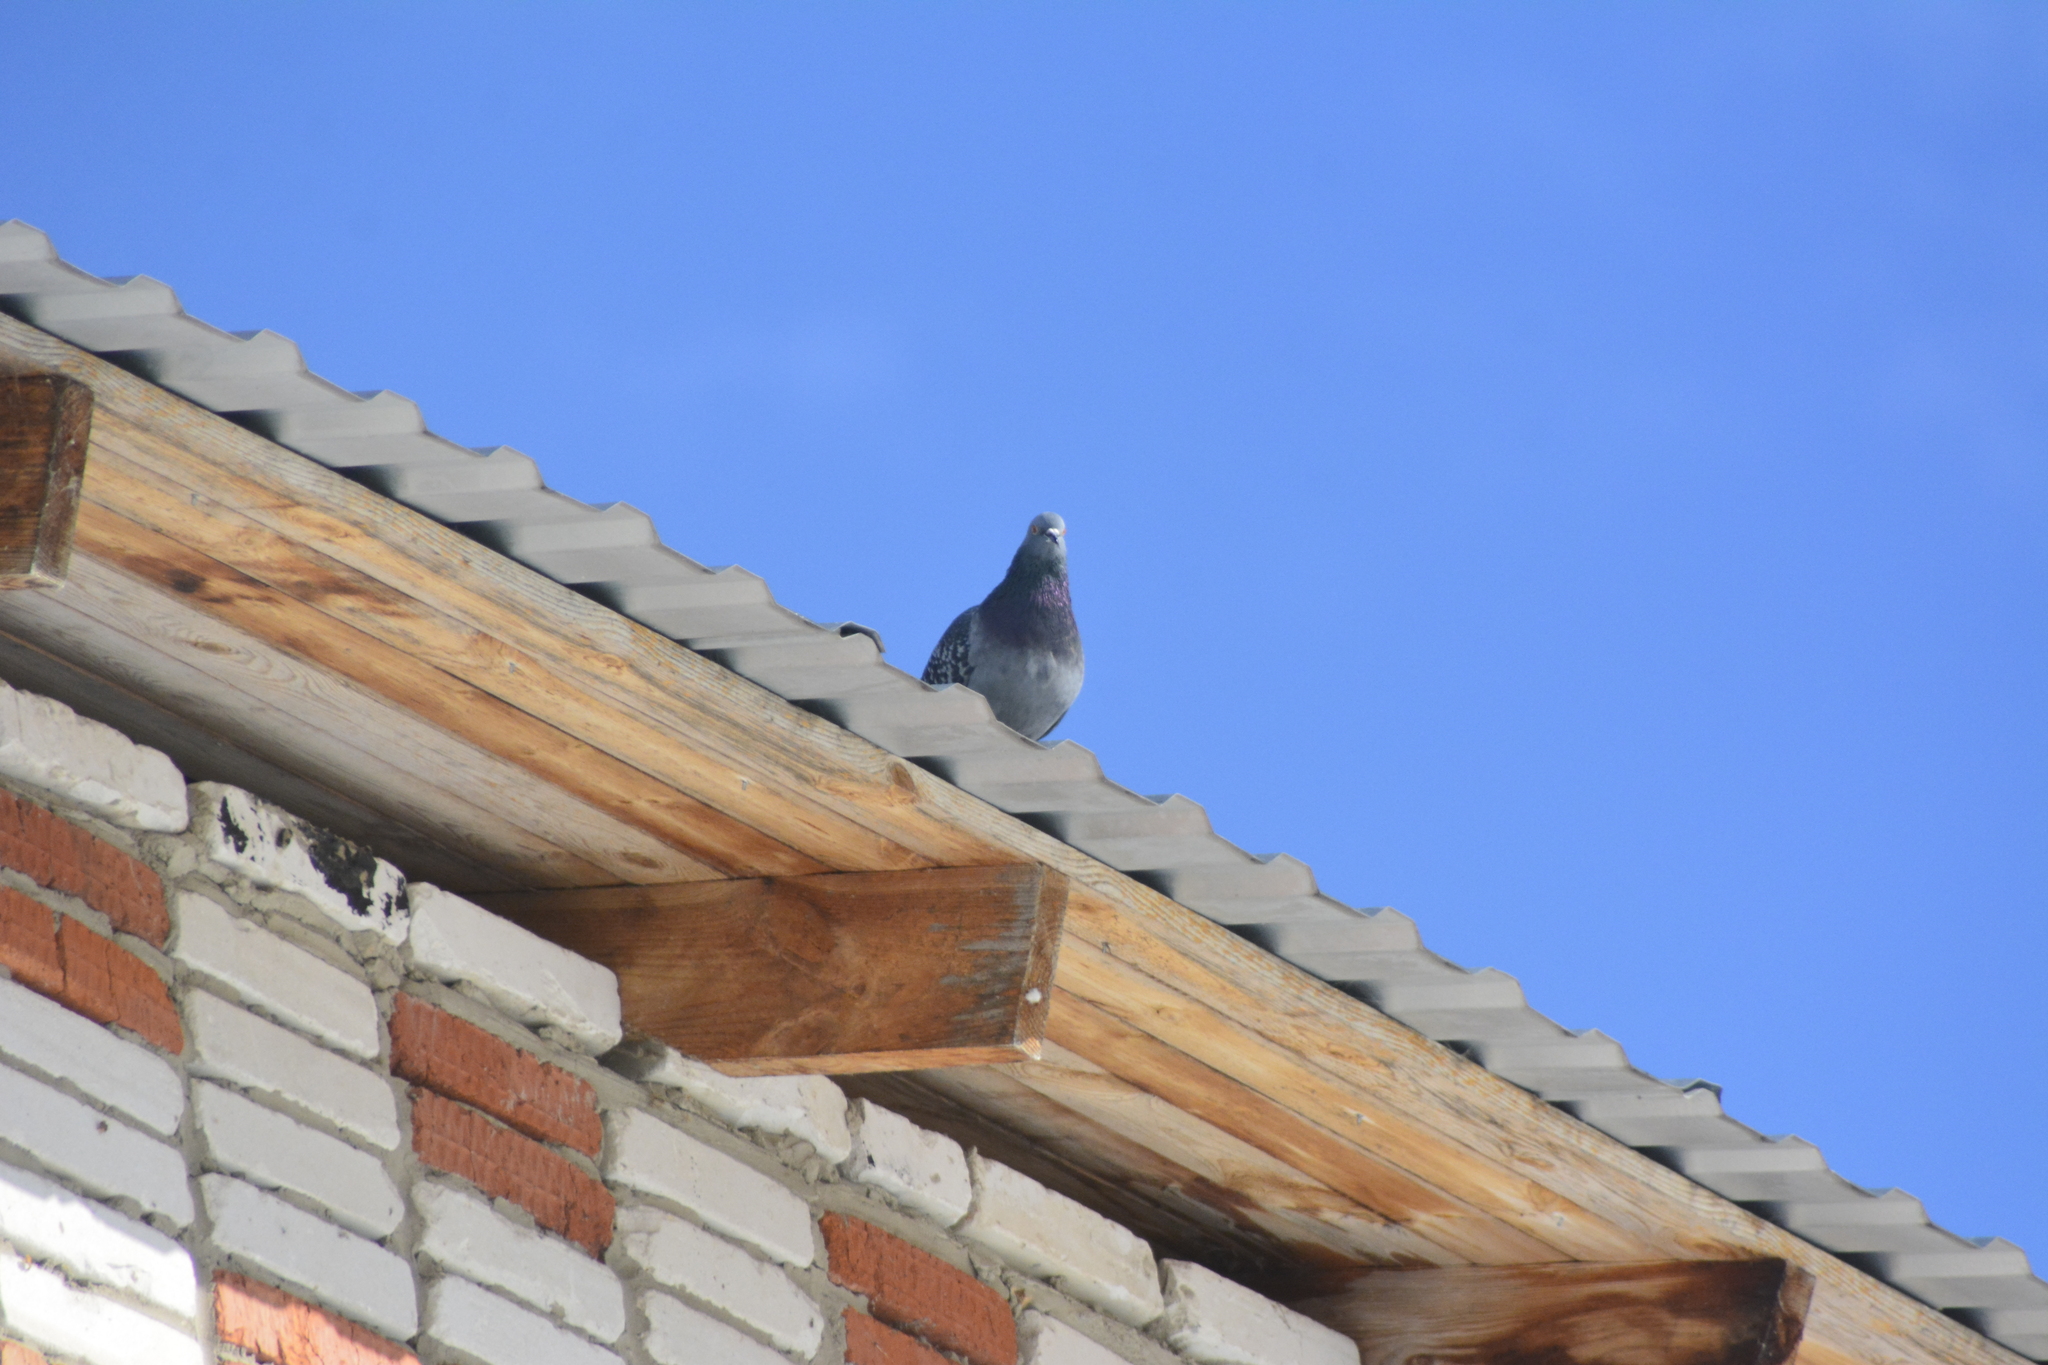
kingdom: Animalia
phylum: Chordata
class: Aves
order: Columbiformes
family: Columbidae
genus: Columba
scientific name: Columba livia
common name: Rock pigeon
